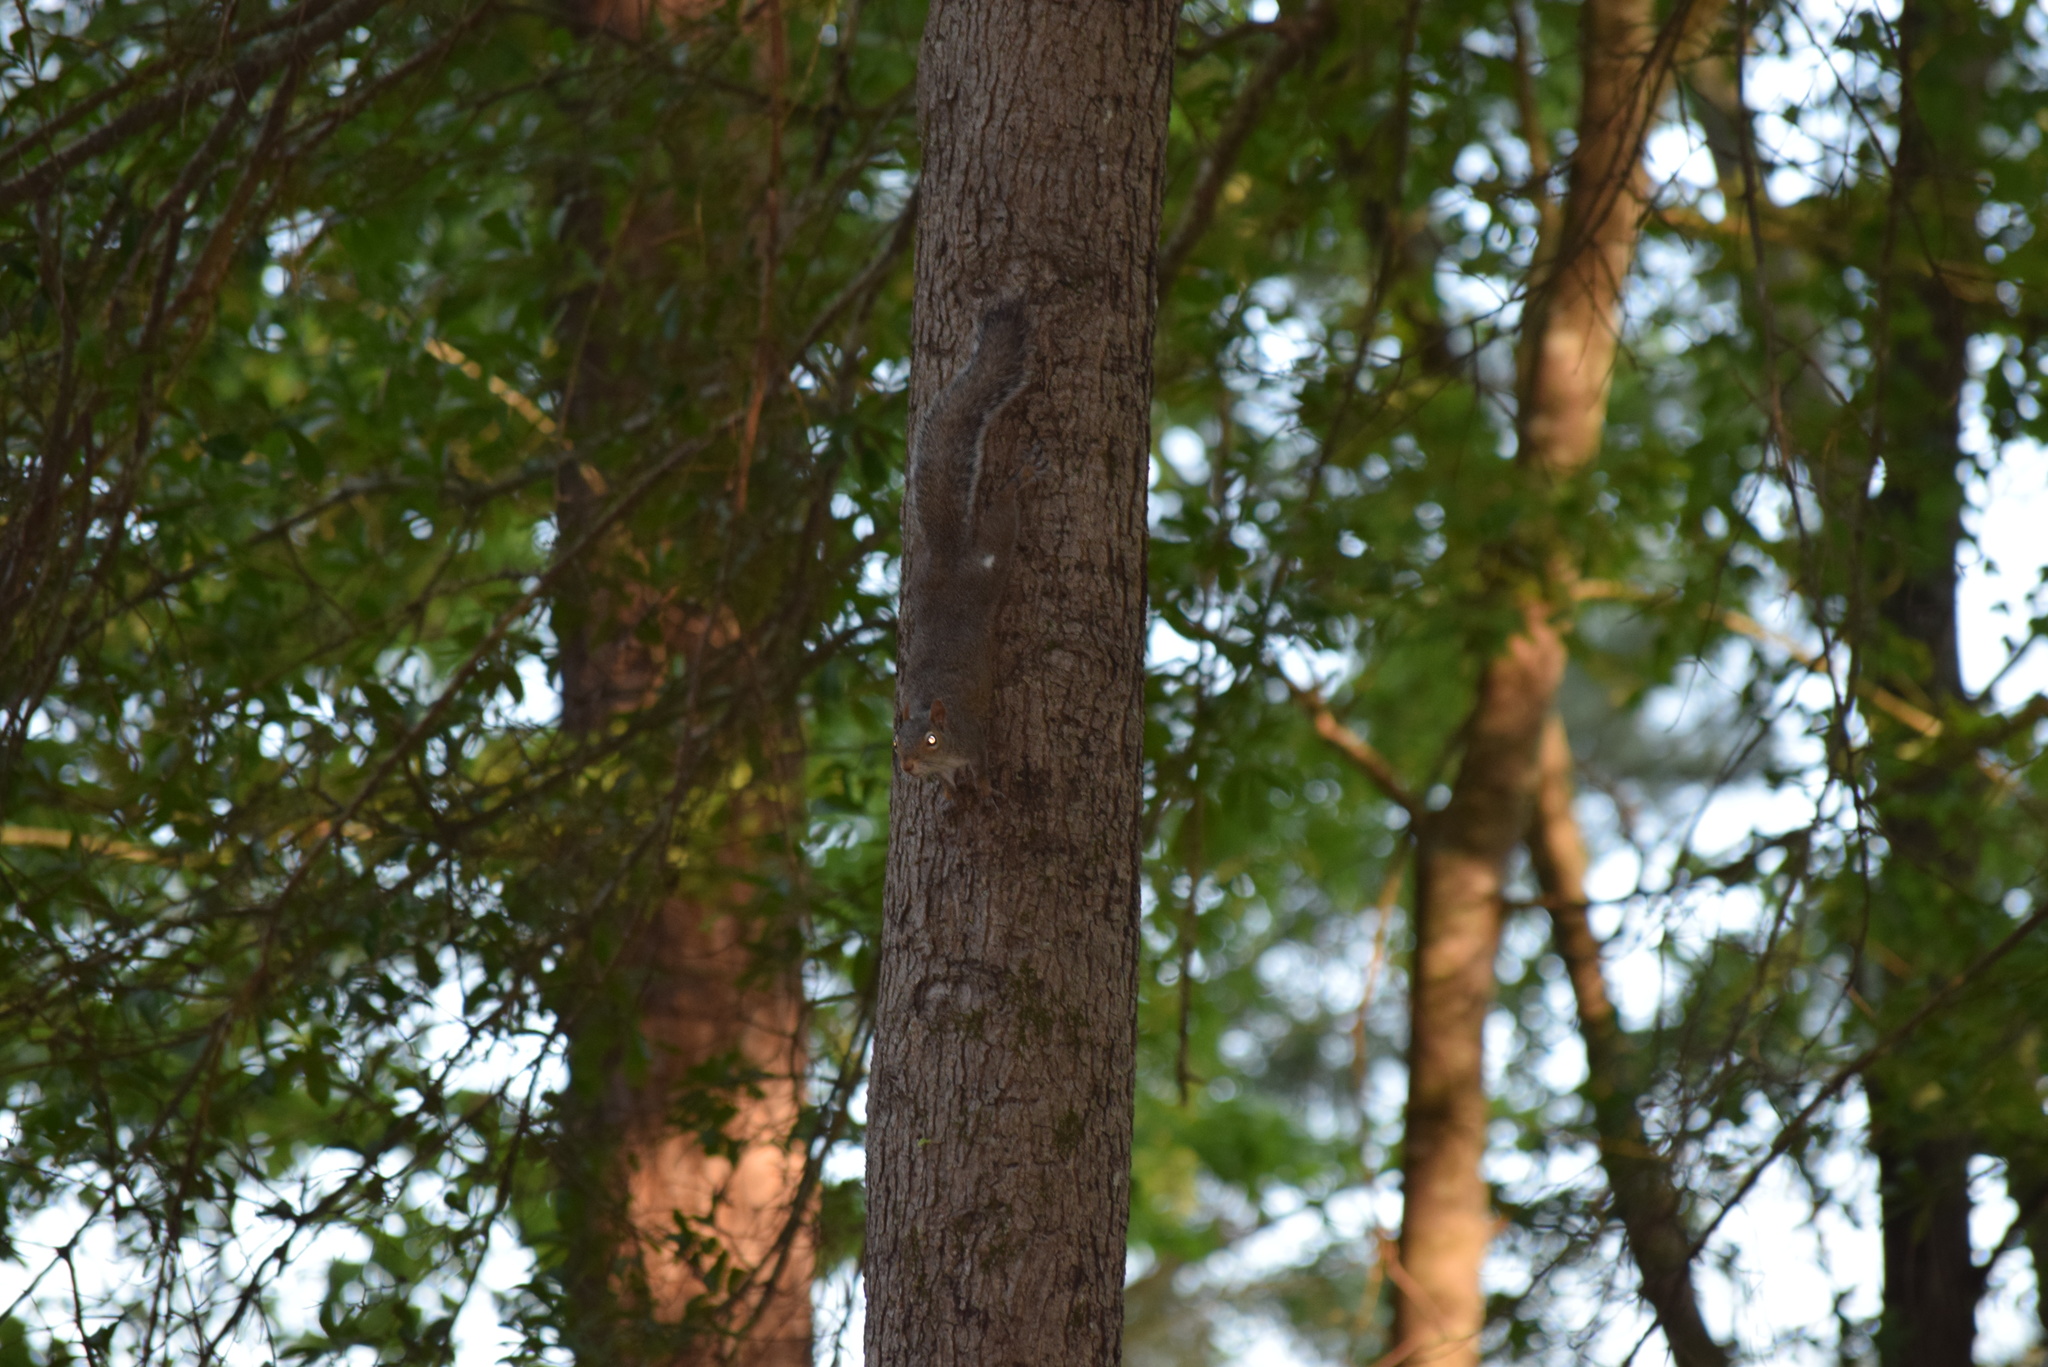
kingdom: Animalia
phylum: Chordata
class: Mammalia
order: Rodentia
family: Sciuridae
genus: Sciurus
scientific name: Sciurus carolinensis
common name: Eastern gray squirrel
